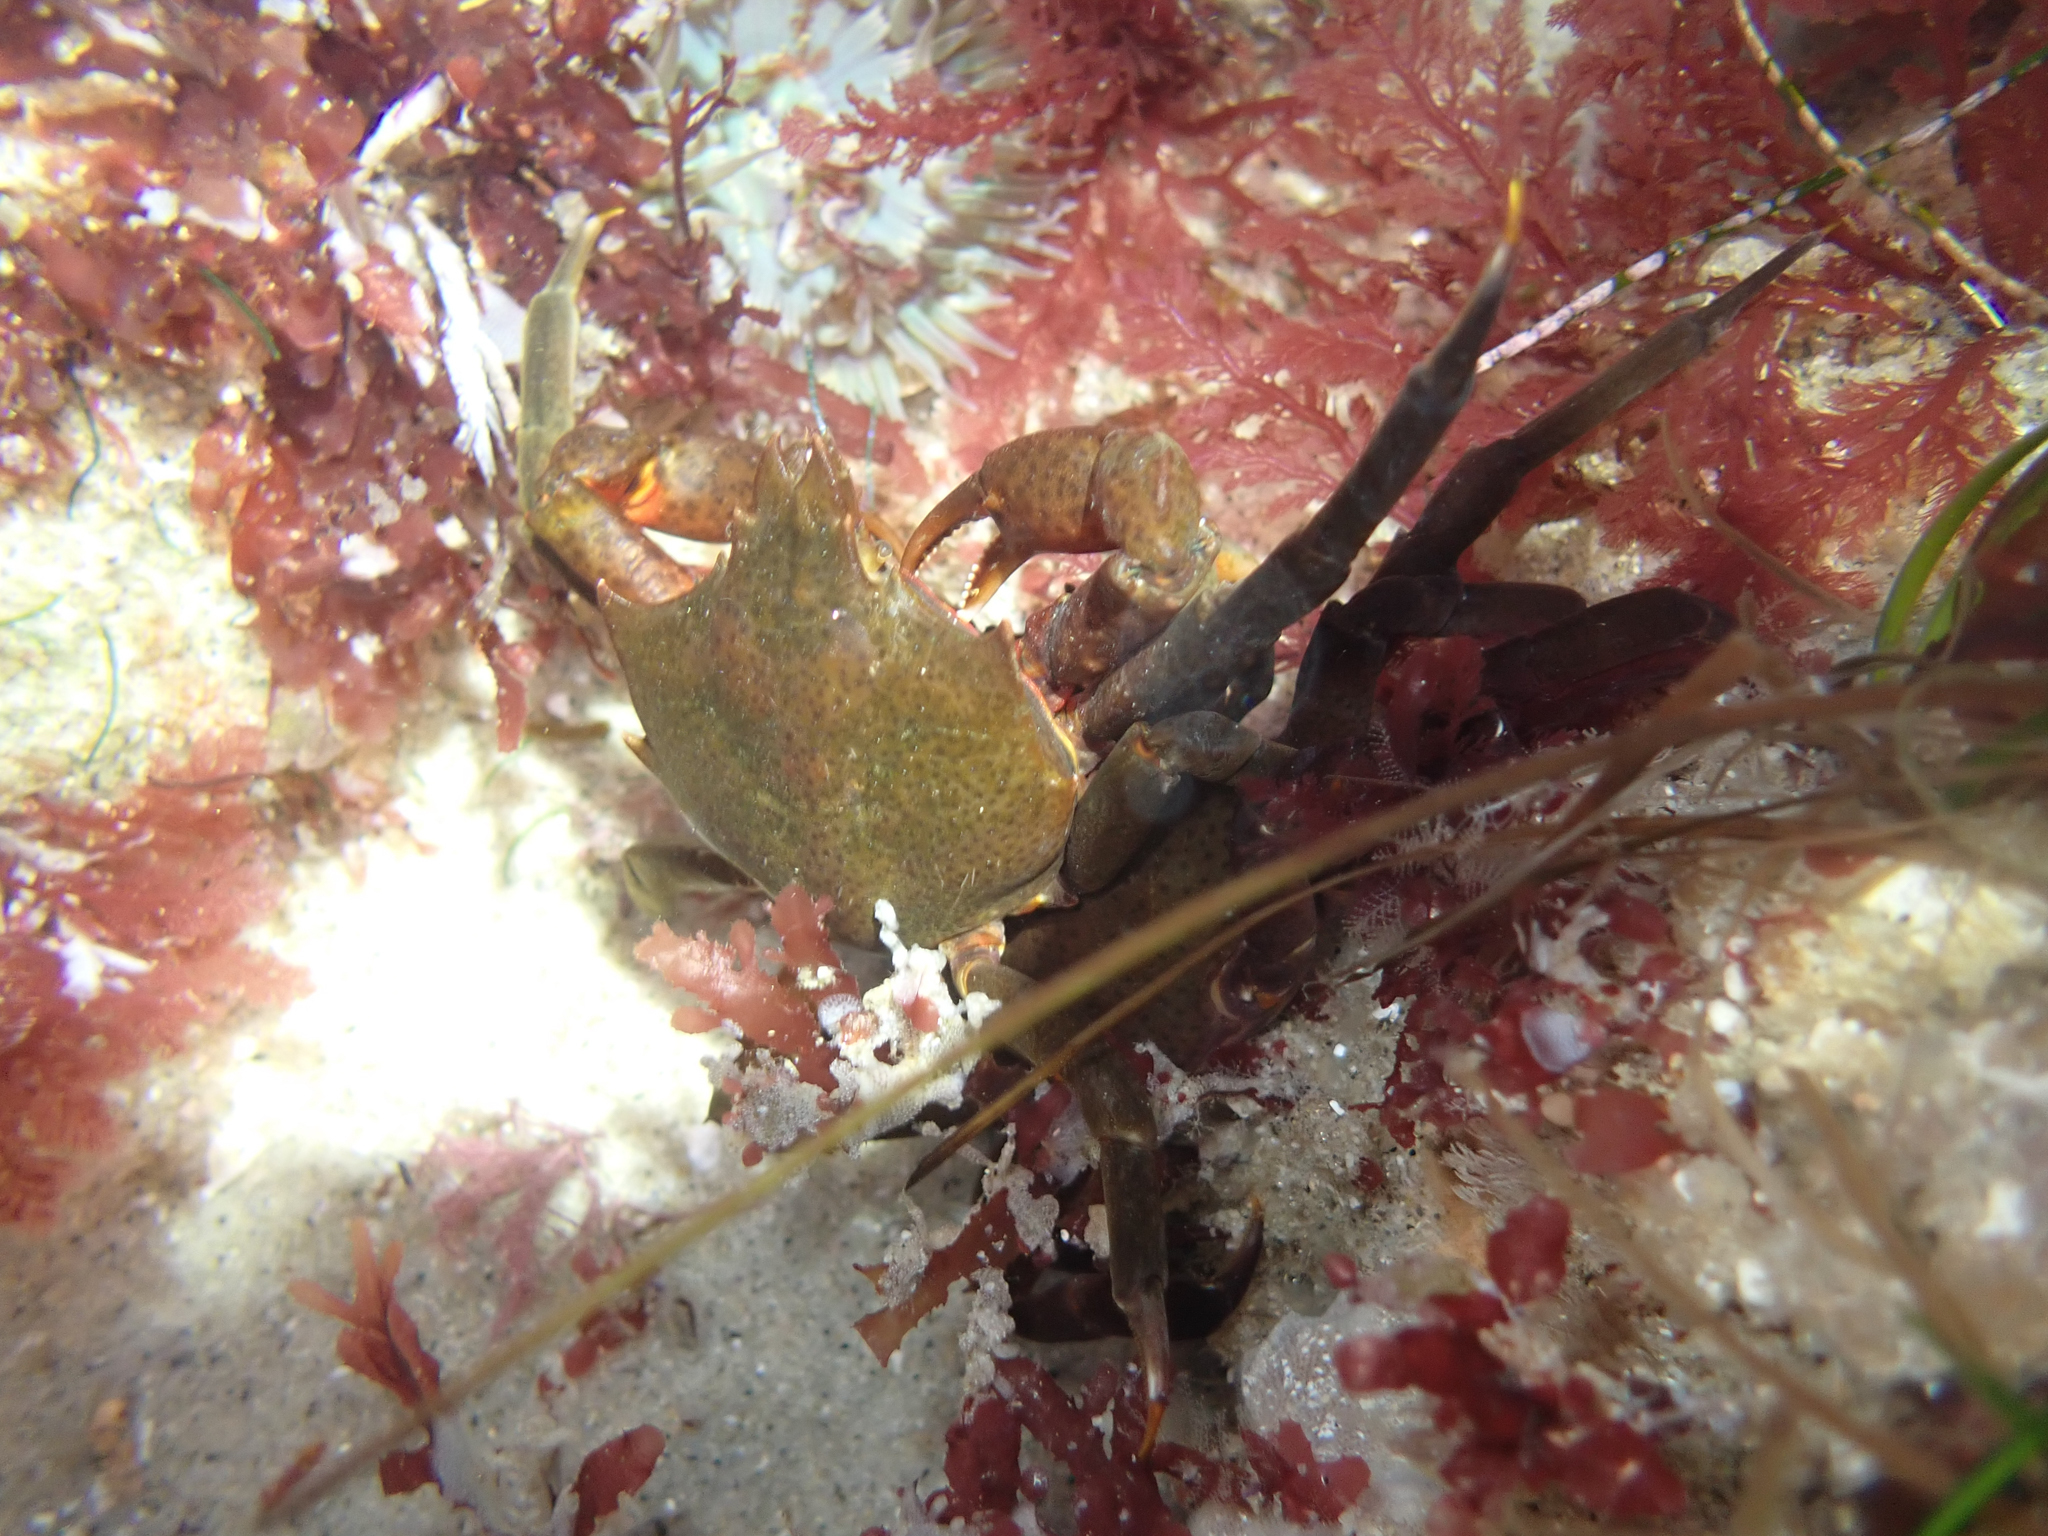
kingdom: Animalia
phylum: Arthropoda
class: Malacostraca
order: Decapoda
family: Epialtidae
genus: Pugettia
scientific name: Pugettia producta
